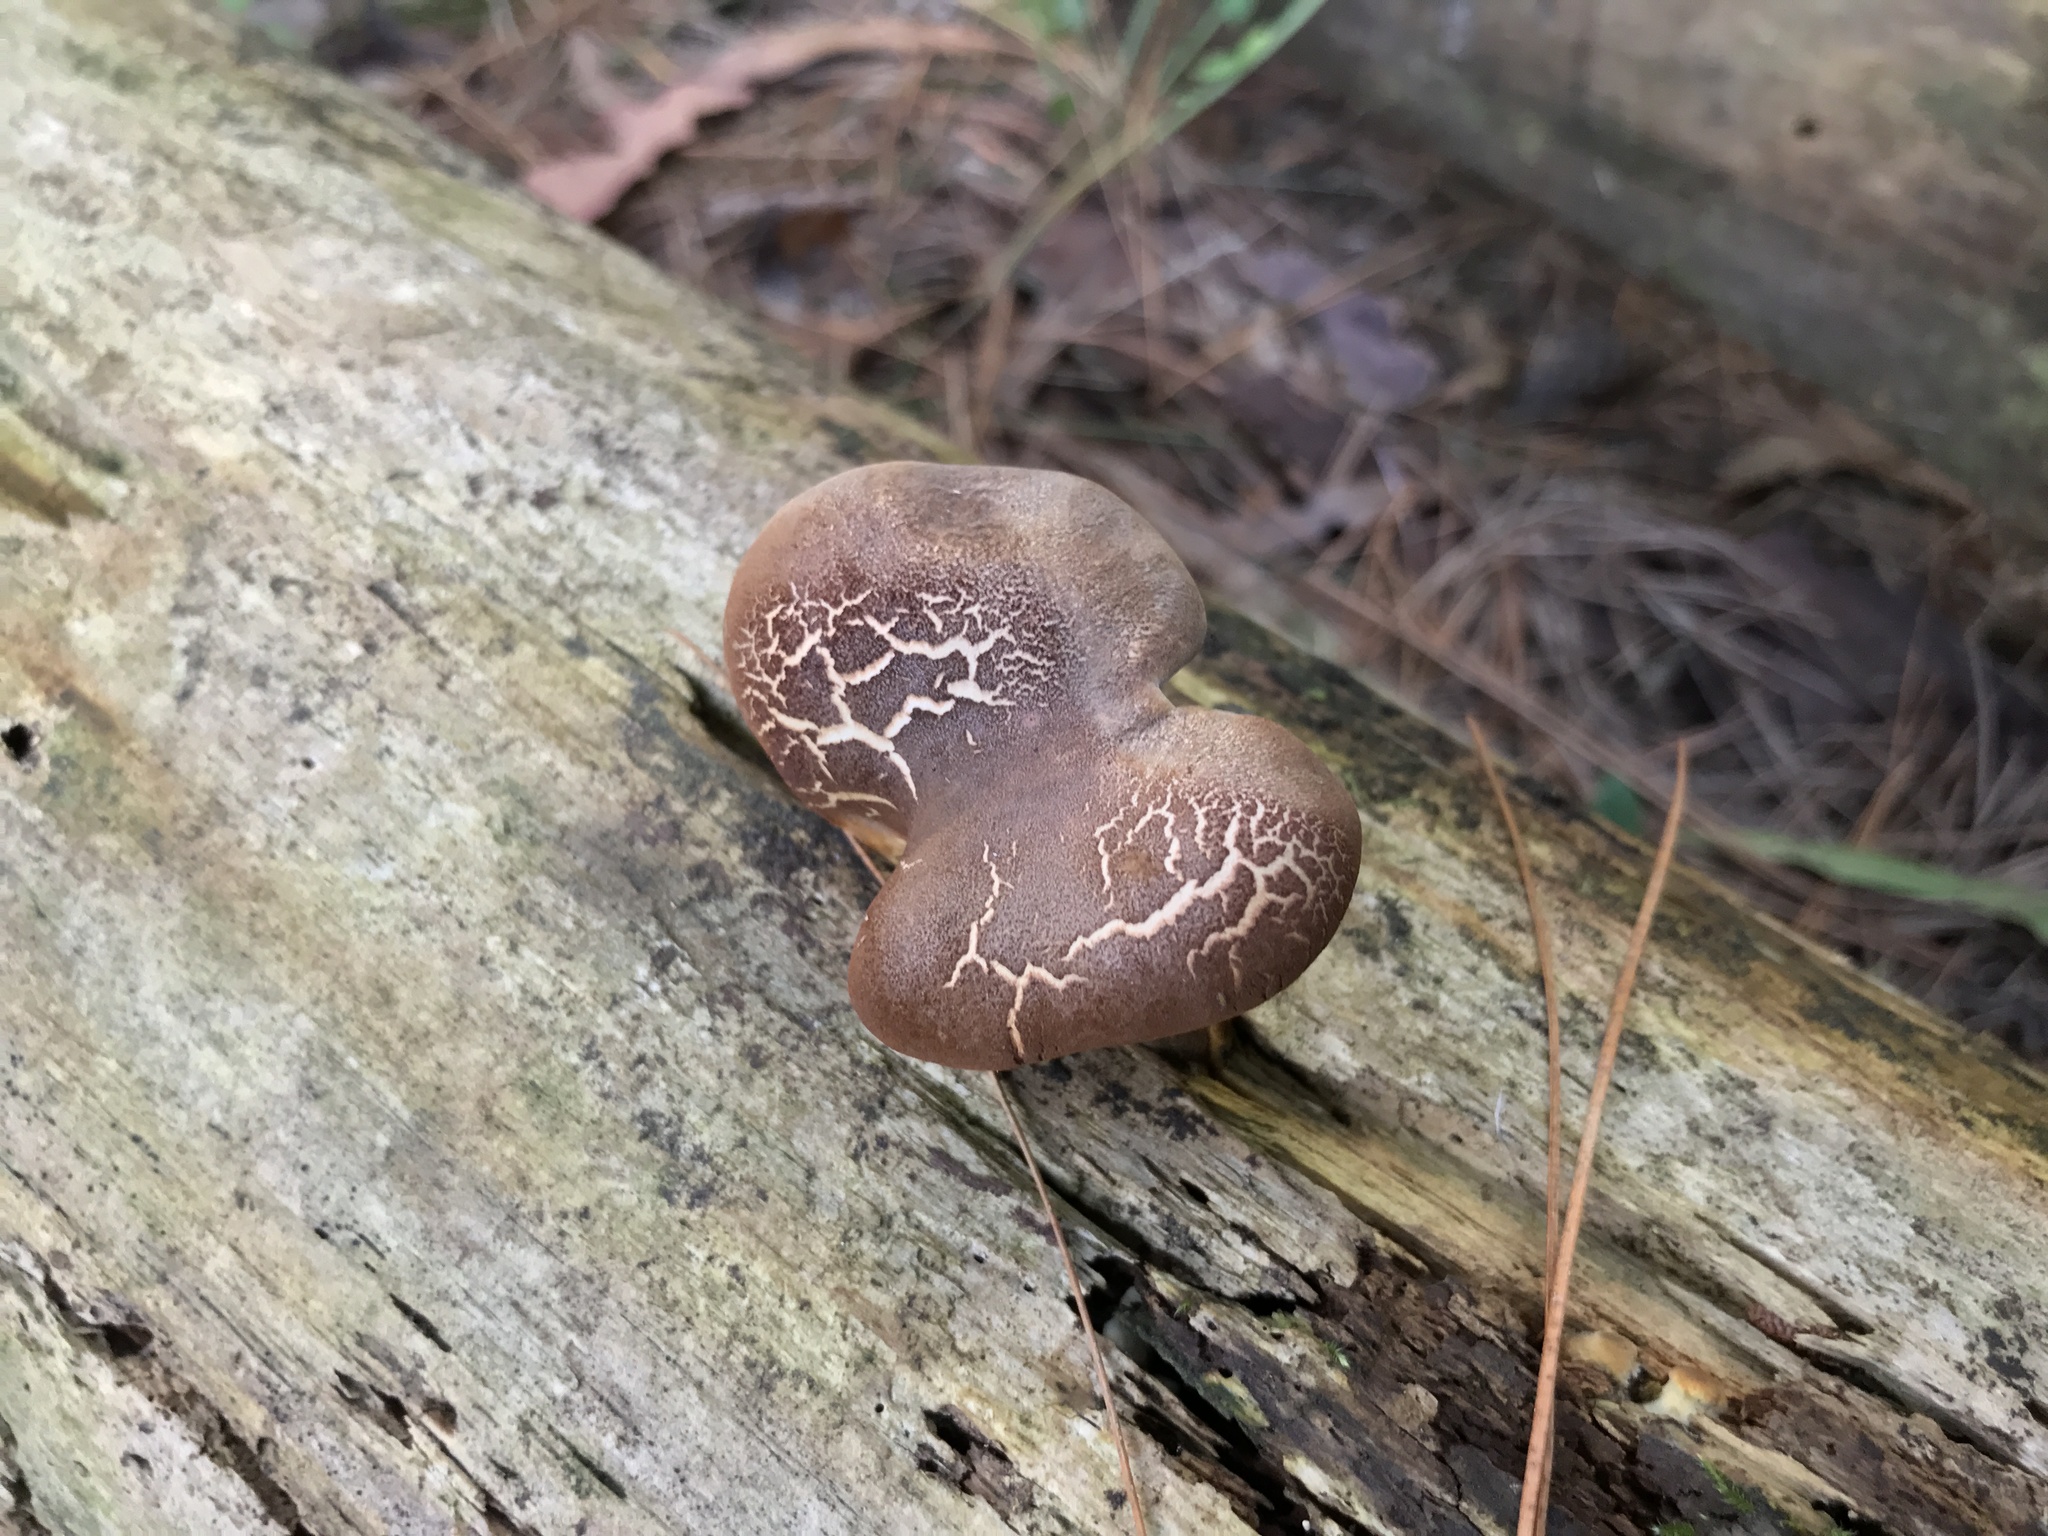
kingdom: Fungi
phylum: Basidiomycota
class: Agaricomycetes
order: Boletales
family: Tapinellaceae
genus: Tapinella
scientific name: Tapinella atrotomentosa
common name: Velvet rollrim
